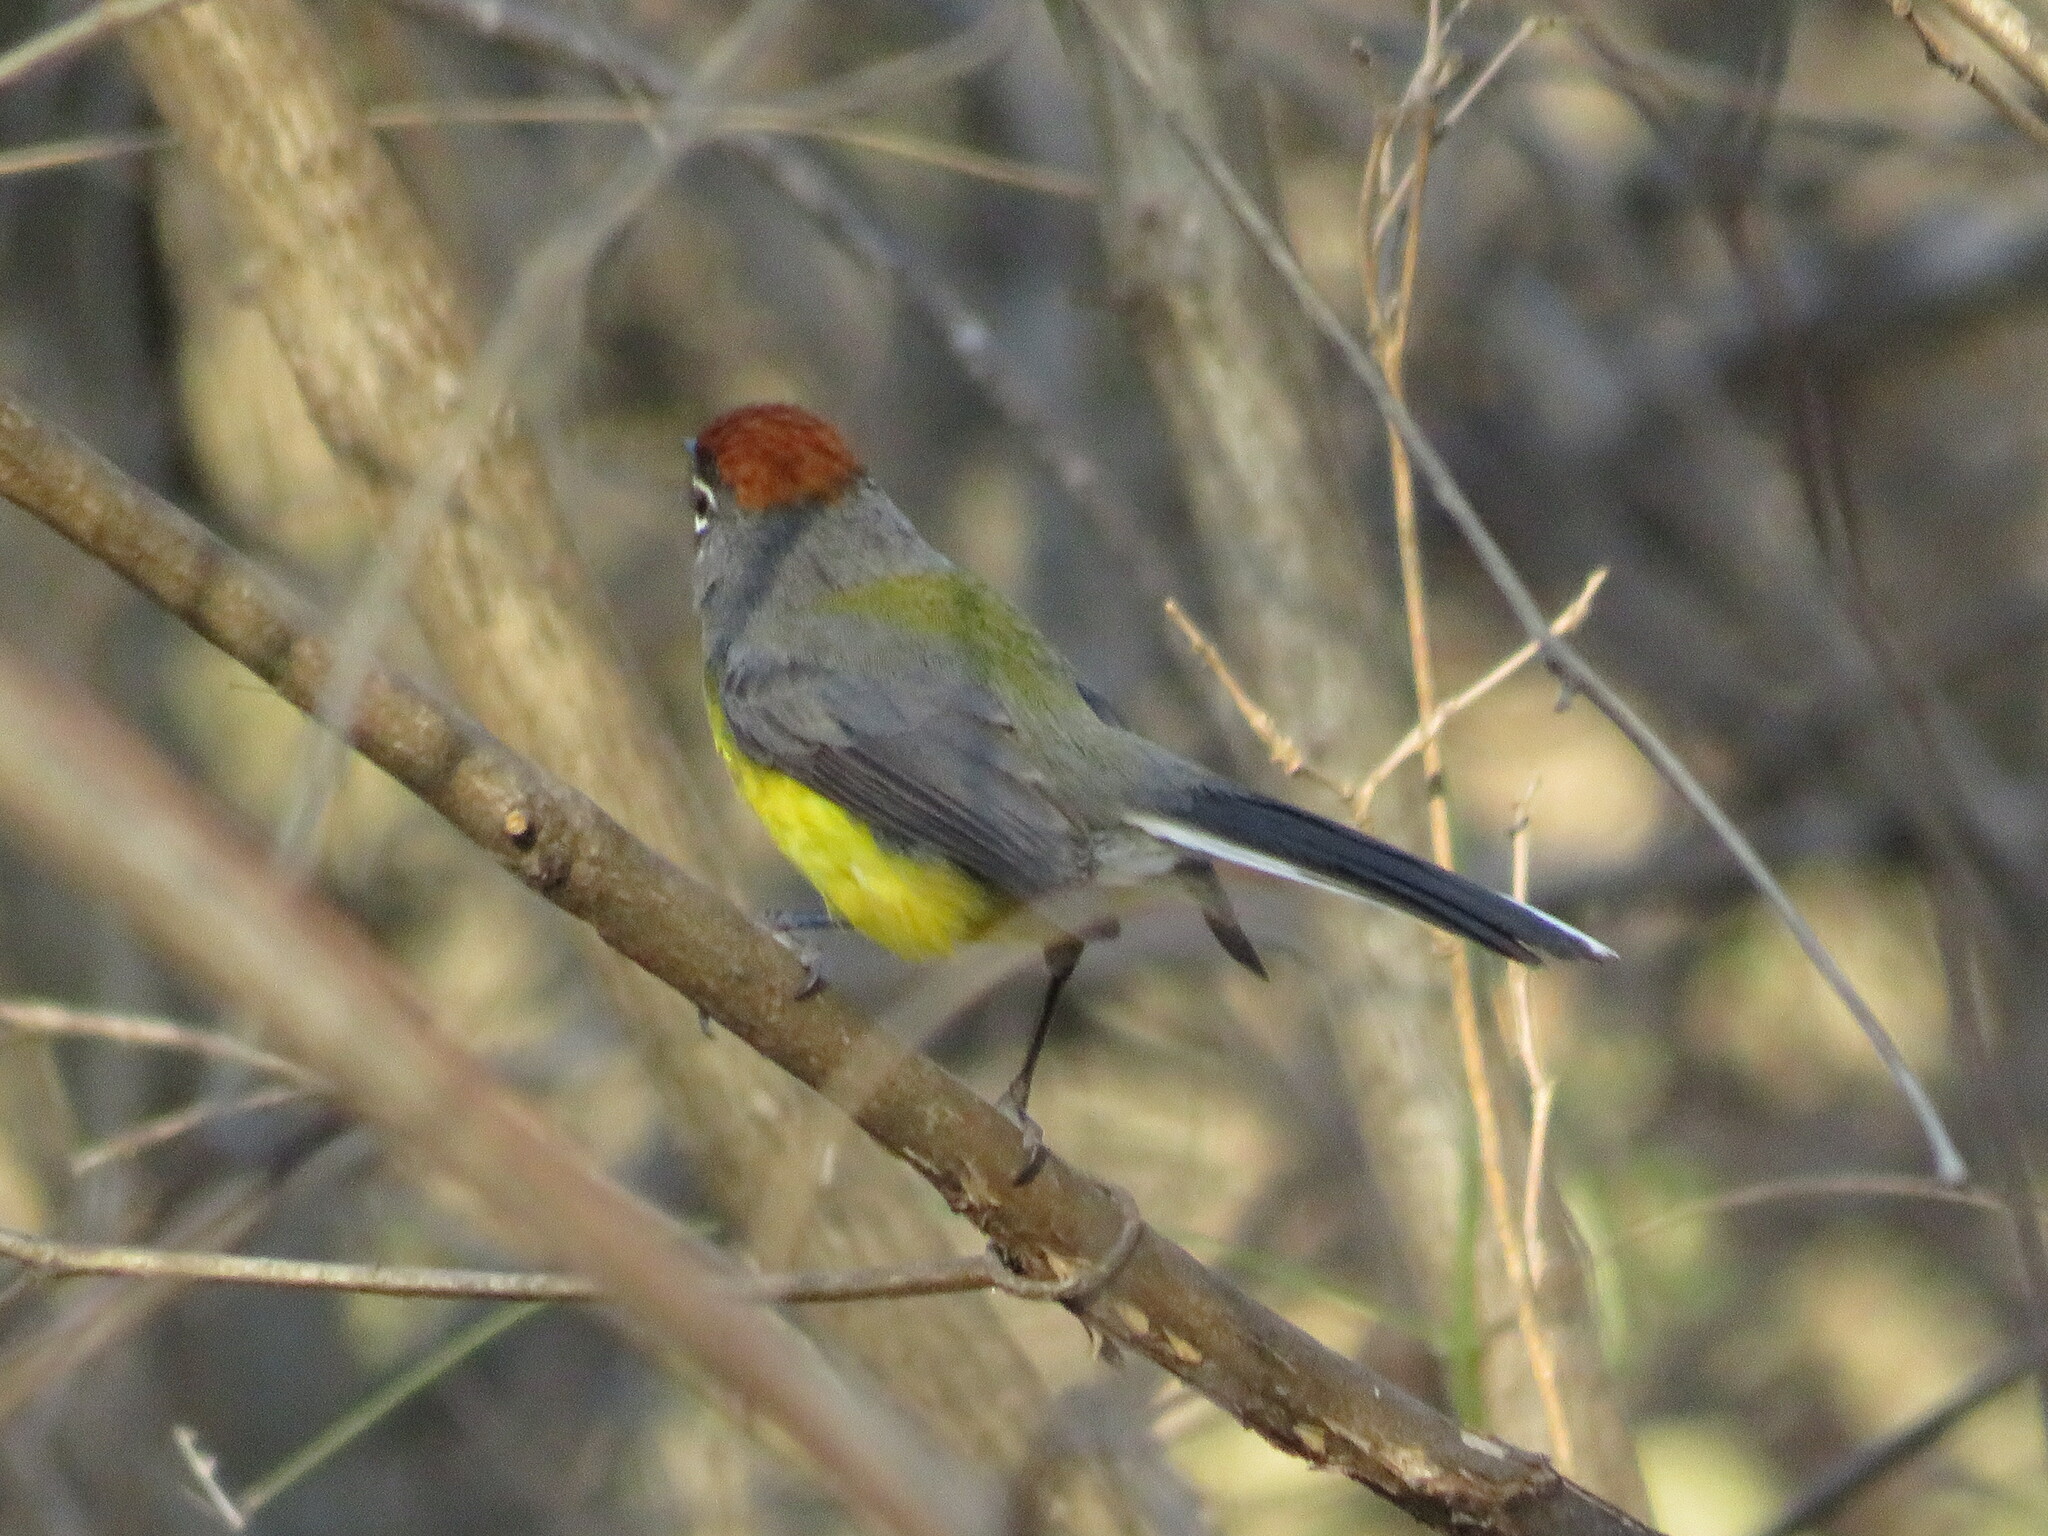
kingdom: Animalia
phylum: Chordata
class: Aves
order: Passeriformes
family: Parulidae
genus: Myioborus
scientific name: Myioborus brunniceps
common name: Brown-capped whitestart
